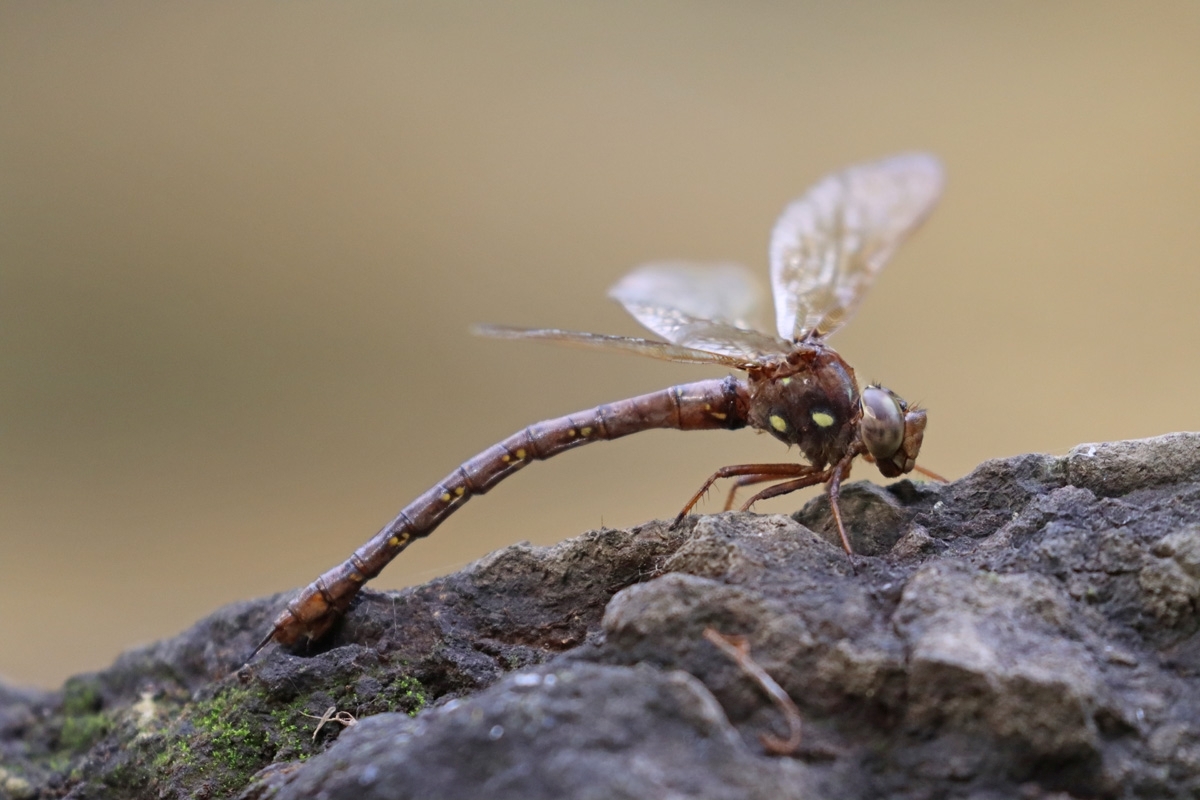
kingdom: Animalia
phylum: Arthropoda
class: Insecta
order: Odonata
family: Aeshnidae
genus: Boyeria
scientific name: Boyeria vinosa
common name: Fawn darner
